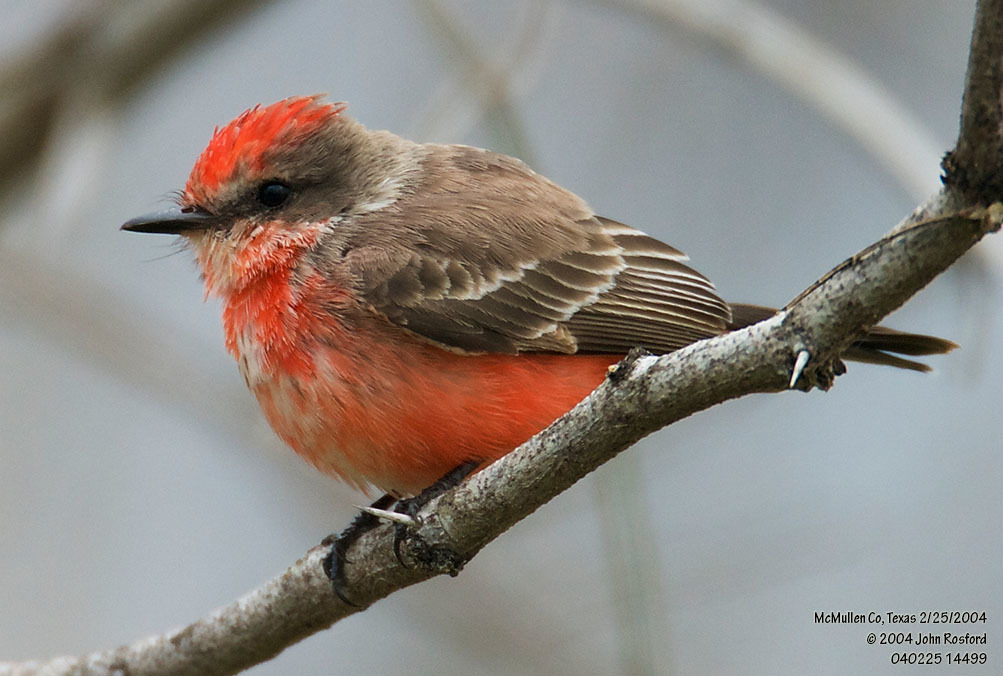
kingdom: Animalia
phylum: Chordata
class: Aves
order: Passeriformes
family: Tyrannidae
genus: Pyrocephalus
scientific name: Pyrocephalus rubinus
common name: Vermilion flycatcher
